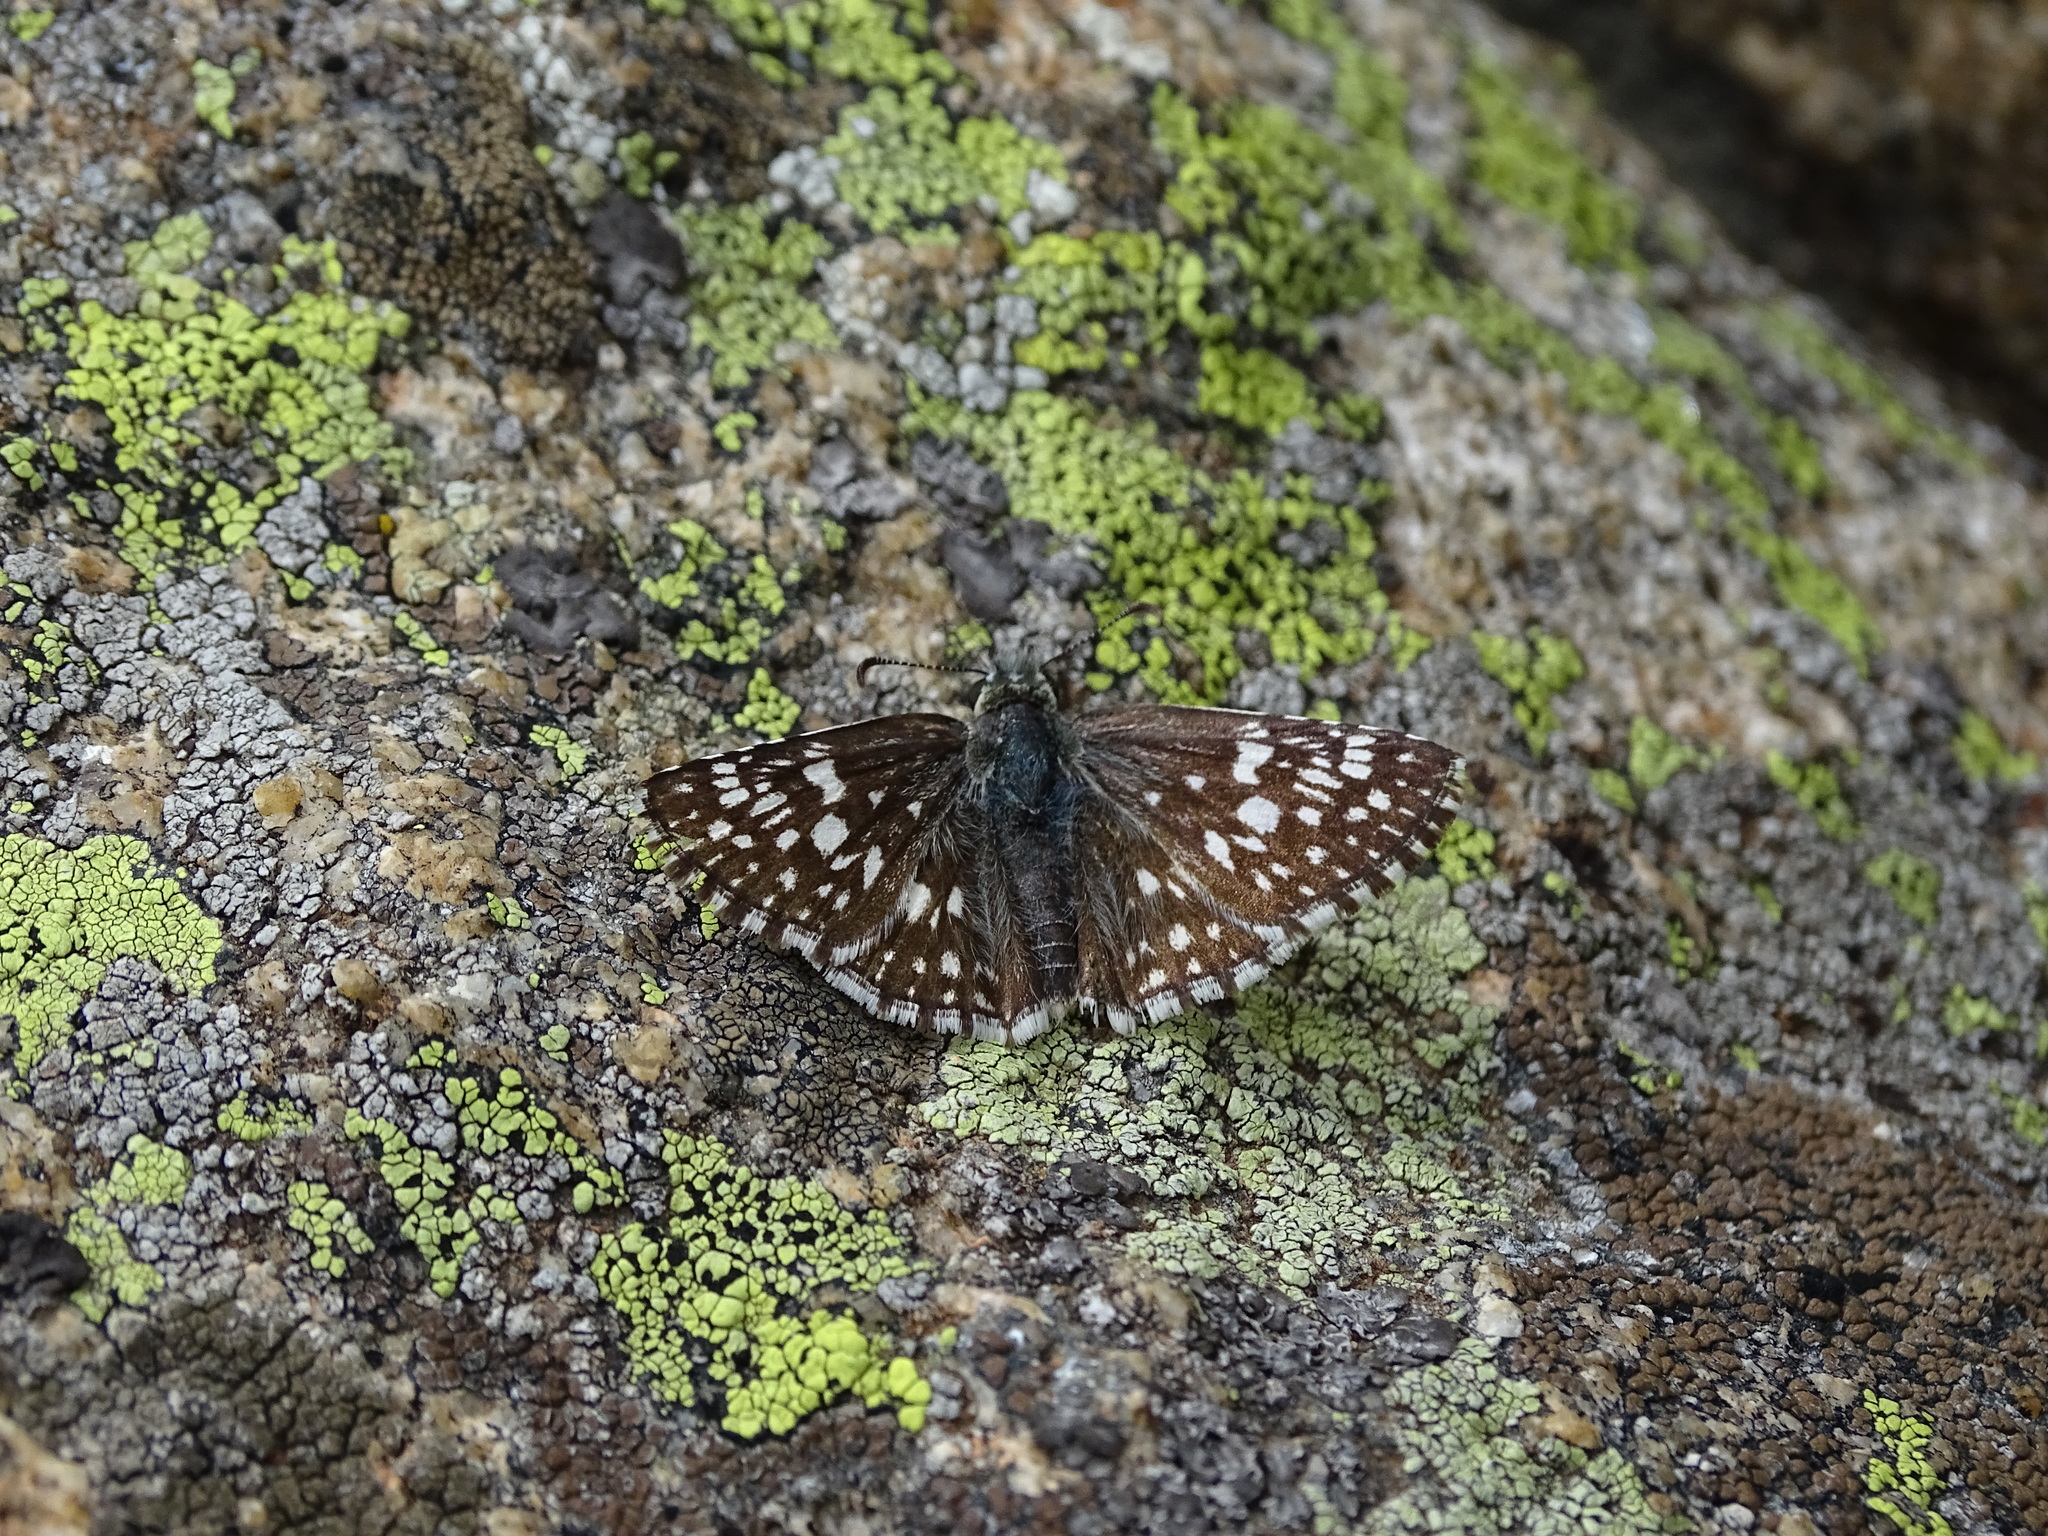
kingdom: Animalia
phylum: Arthropoda
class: Insecta
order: Lepidoptera
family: Hesperiidae
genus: Burnsius
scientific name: Burnsius communis
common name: Common checkered-skipper
